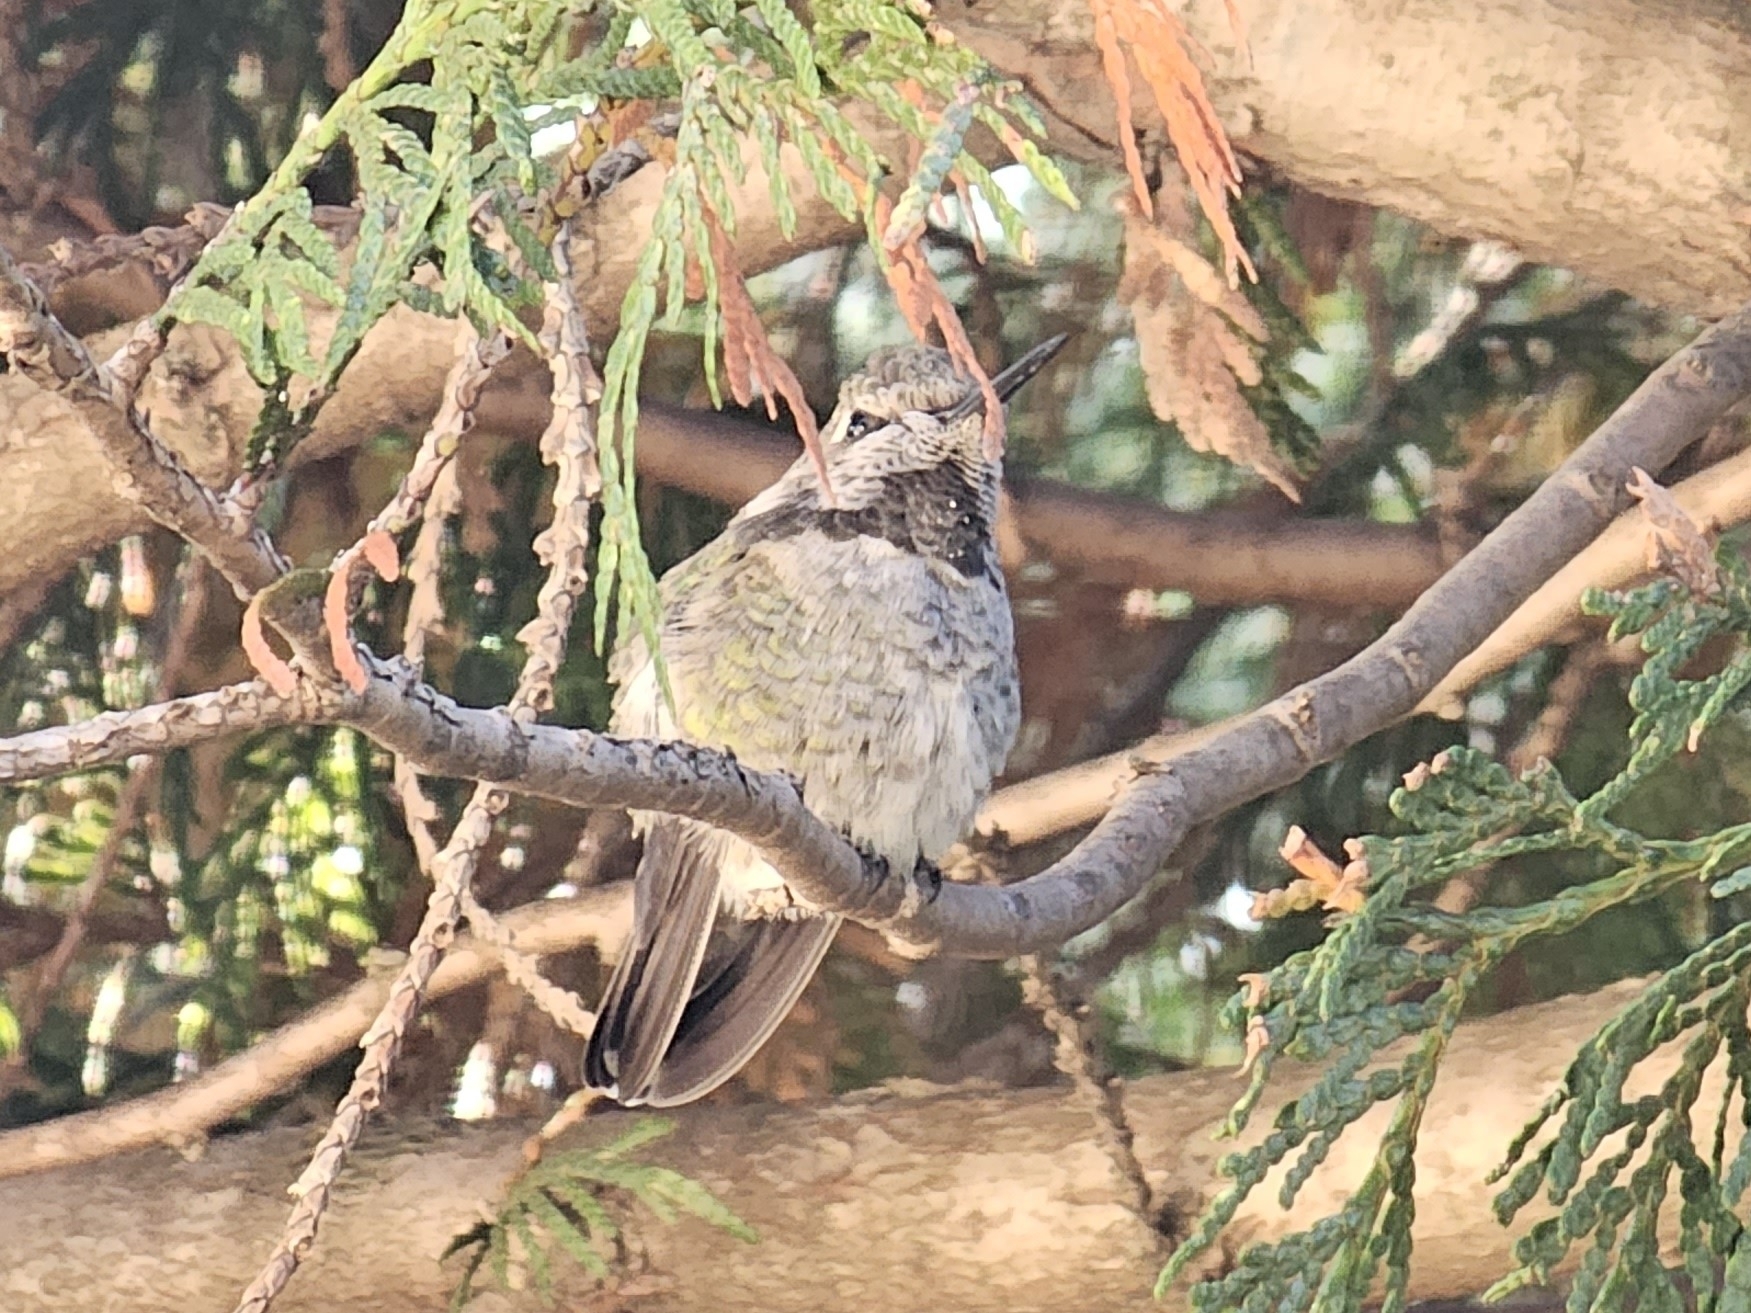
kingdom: Animalia
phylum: Chordata
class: Aves
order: Apodiformes
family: Trochilidae
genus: Calypte
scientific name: Calypte anna
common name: Anna's hummingbird
